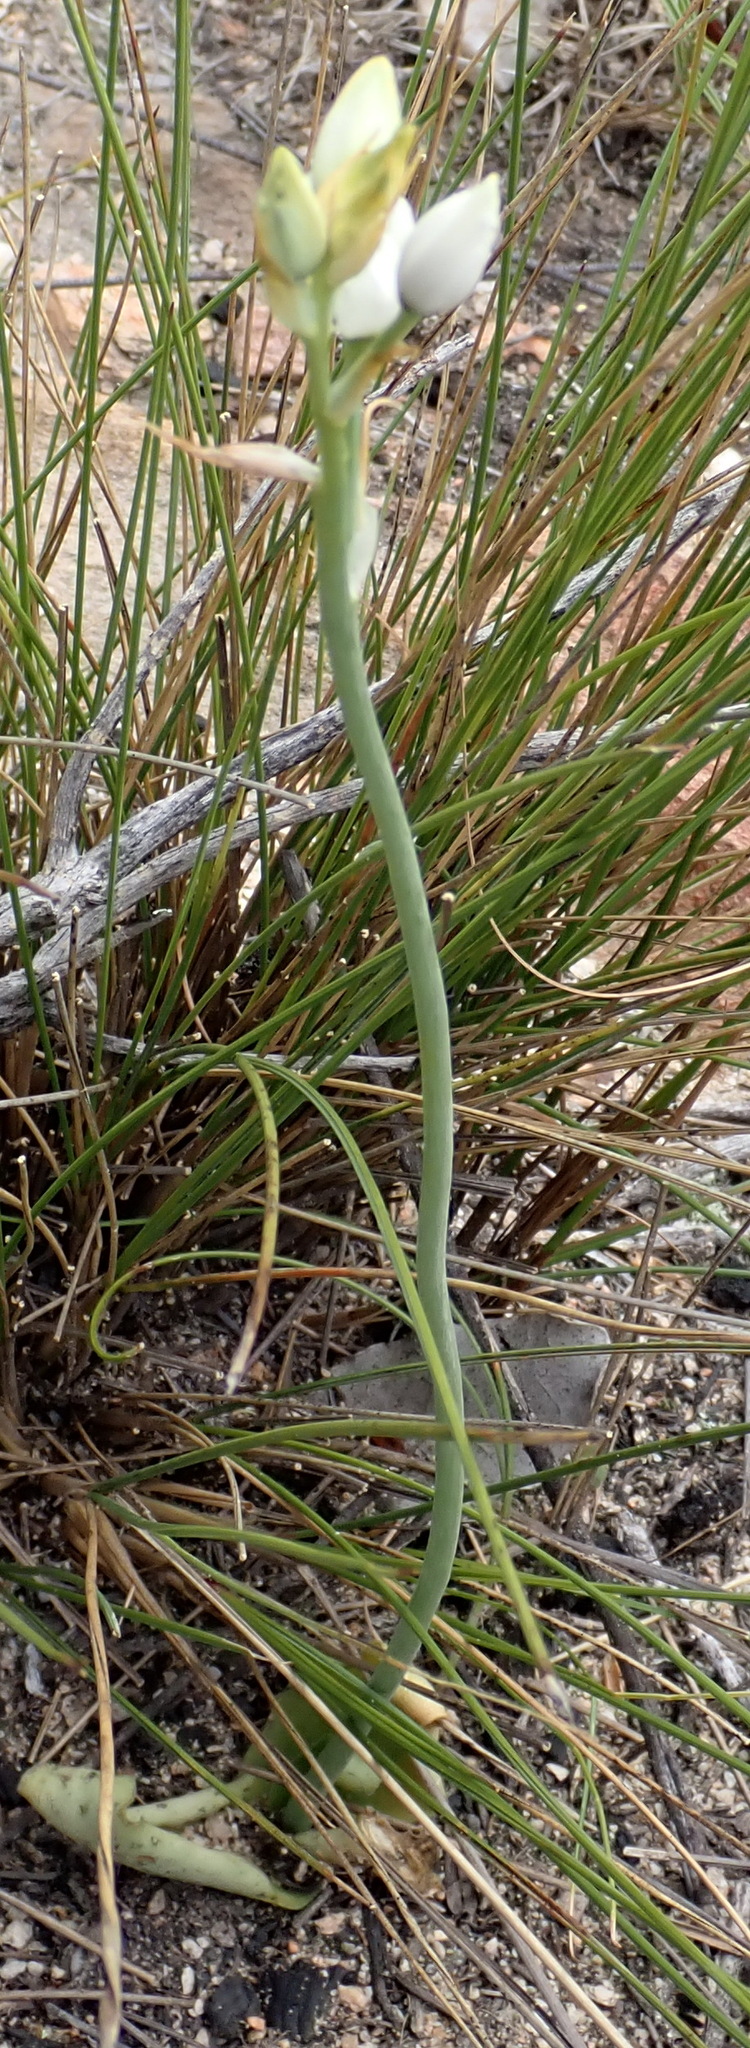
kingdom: Plantae
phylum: Tracheophyta
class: Liliopsida
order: Asparagales
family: Asparagaceae
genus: Ornithogalum
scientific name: Ornithogalum dubium
